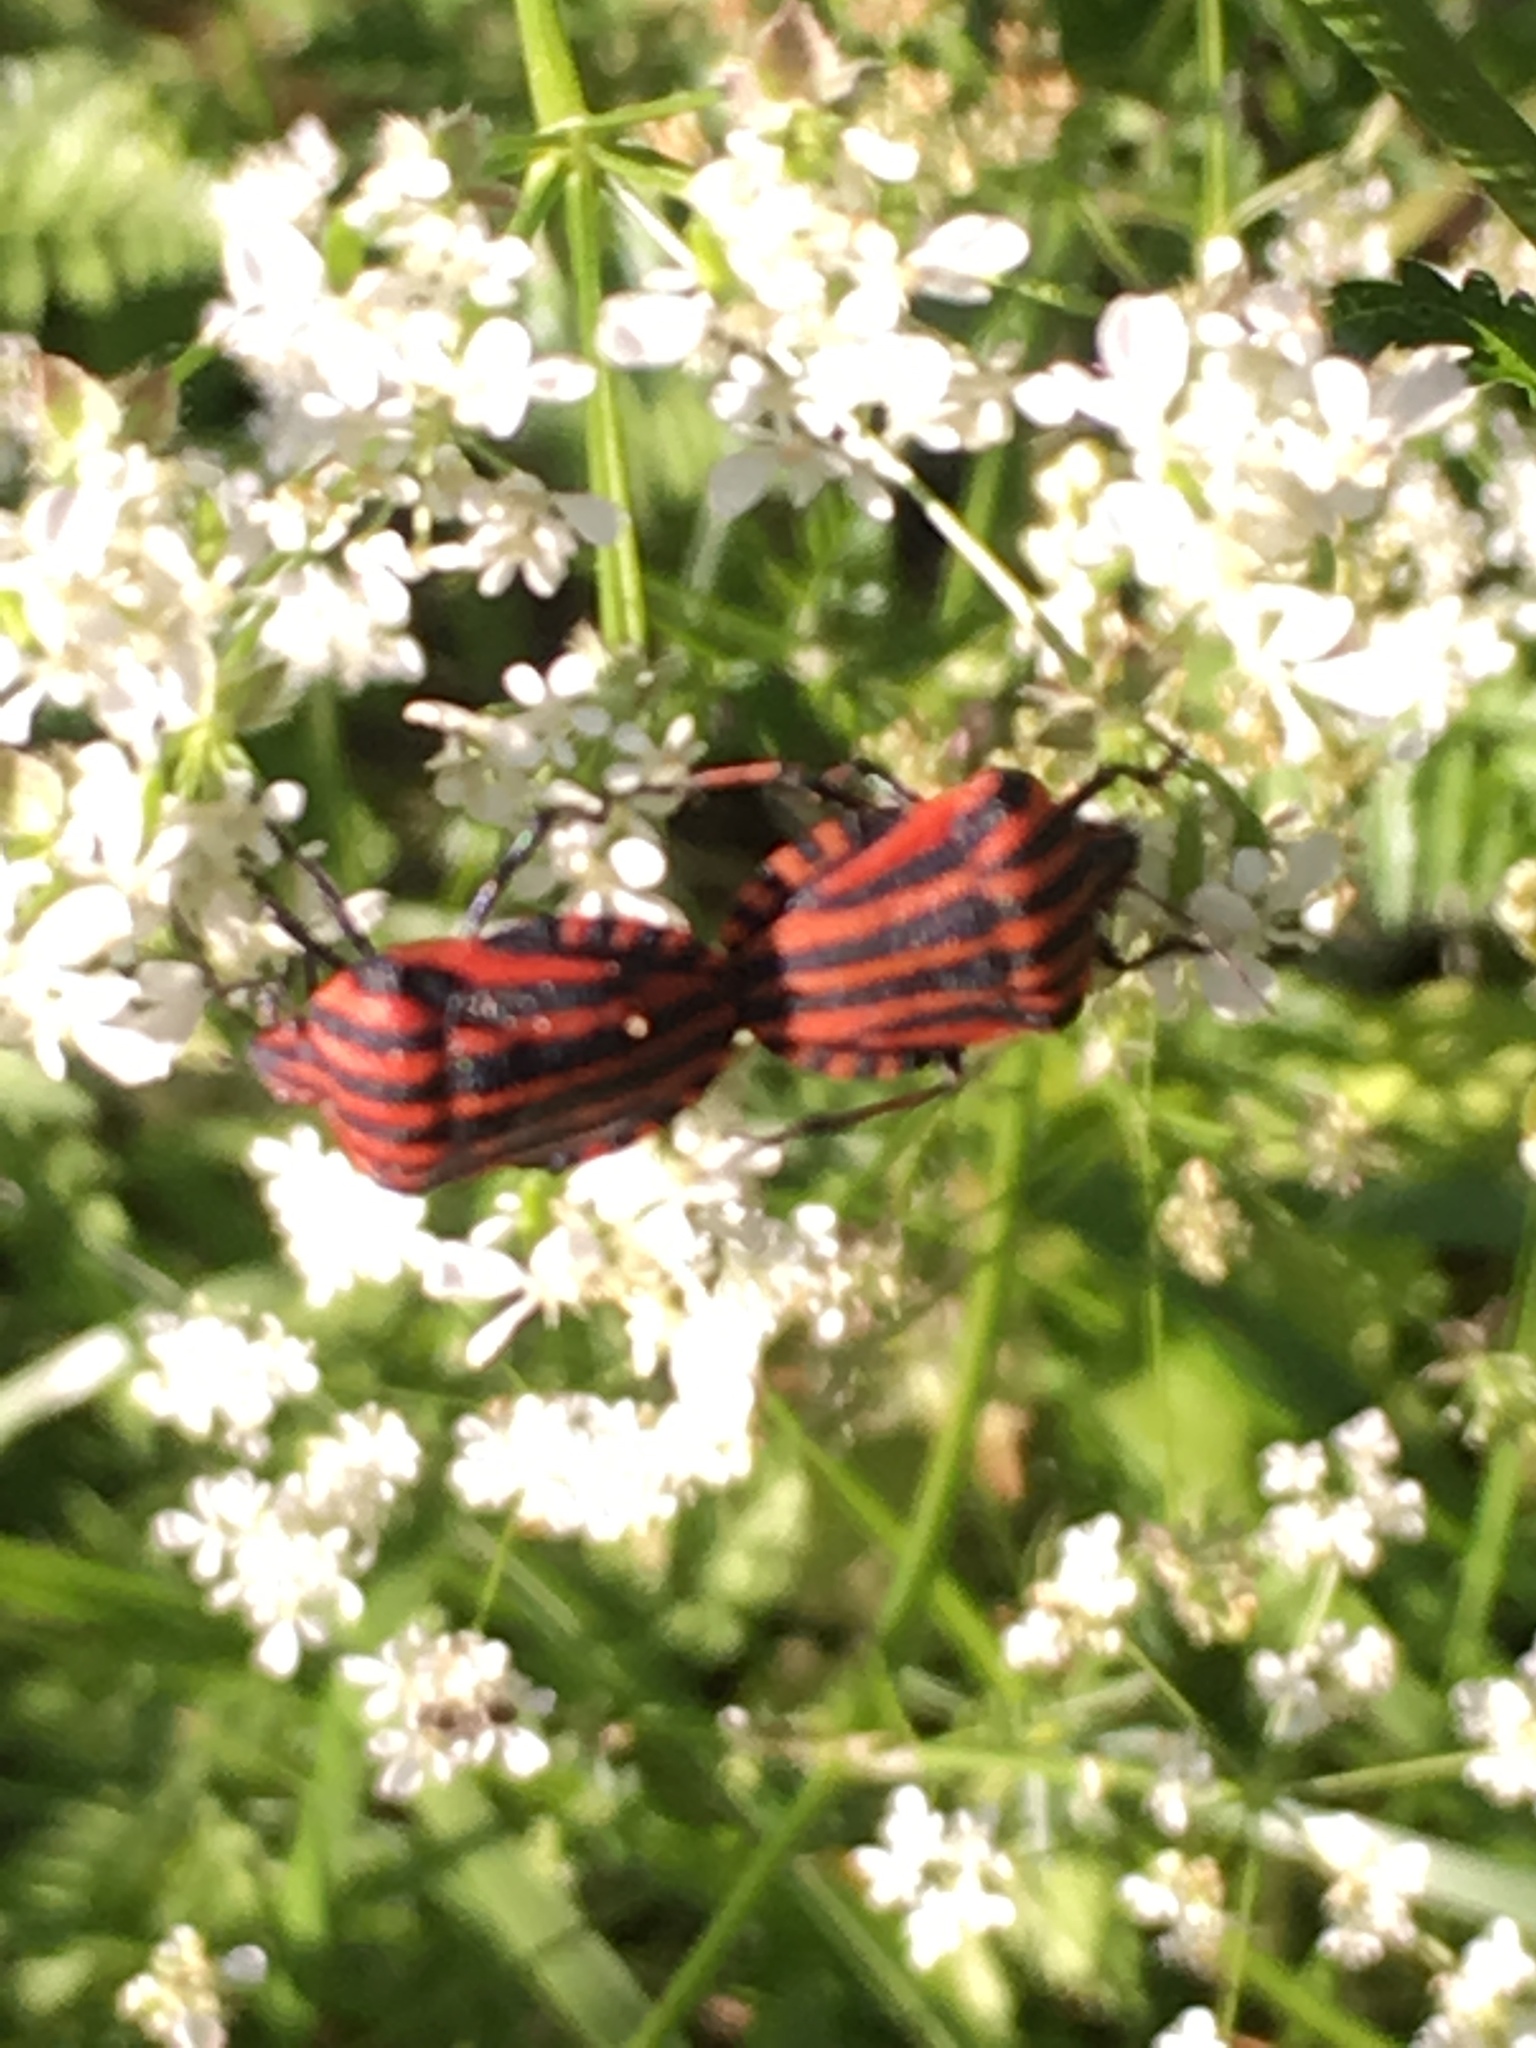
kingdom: Animalia
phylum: Arthropoda
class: Insecta
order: Hemiptera
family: Pentatomidae
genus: Graphosoma
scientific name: Graphosoma italicum
